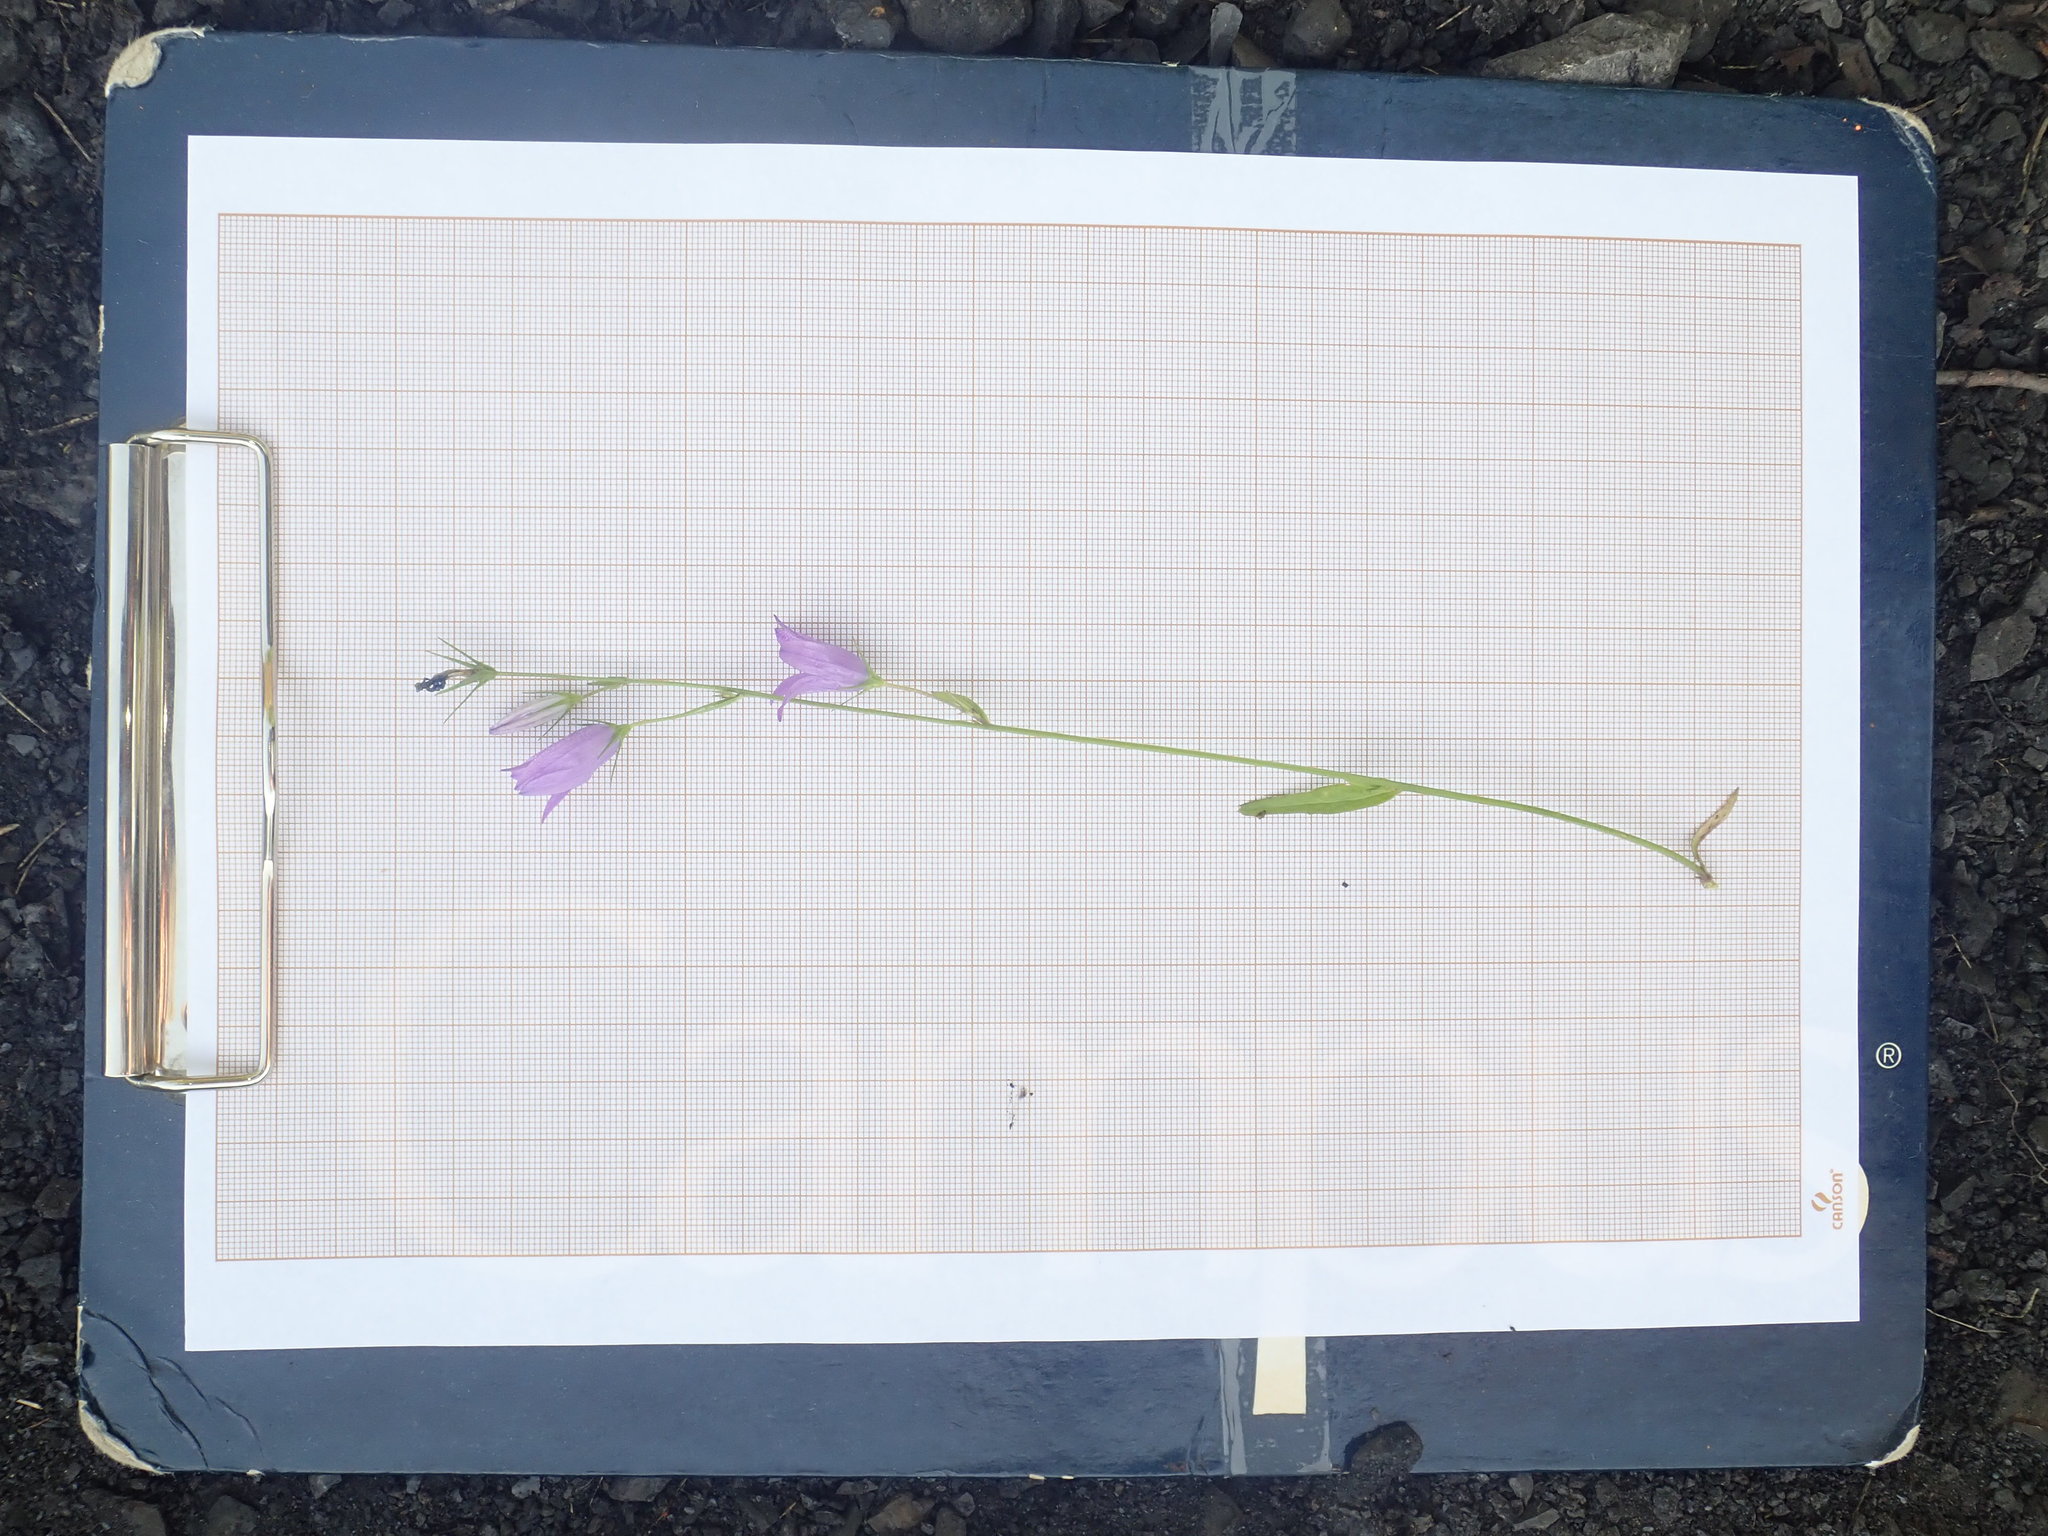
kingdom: Plantae
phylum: Tracheophyta
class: Magnoliopsida
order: Asterales
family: Campanulaceae
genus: Campanula
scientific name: Campanula rapunculus
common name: Rampion bellflower
